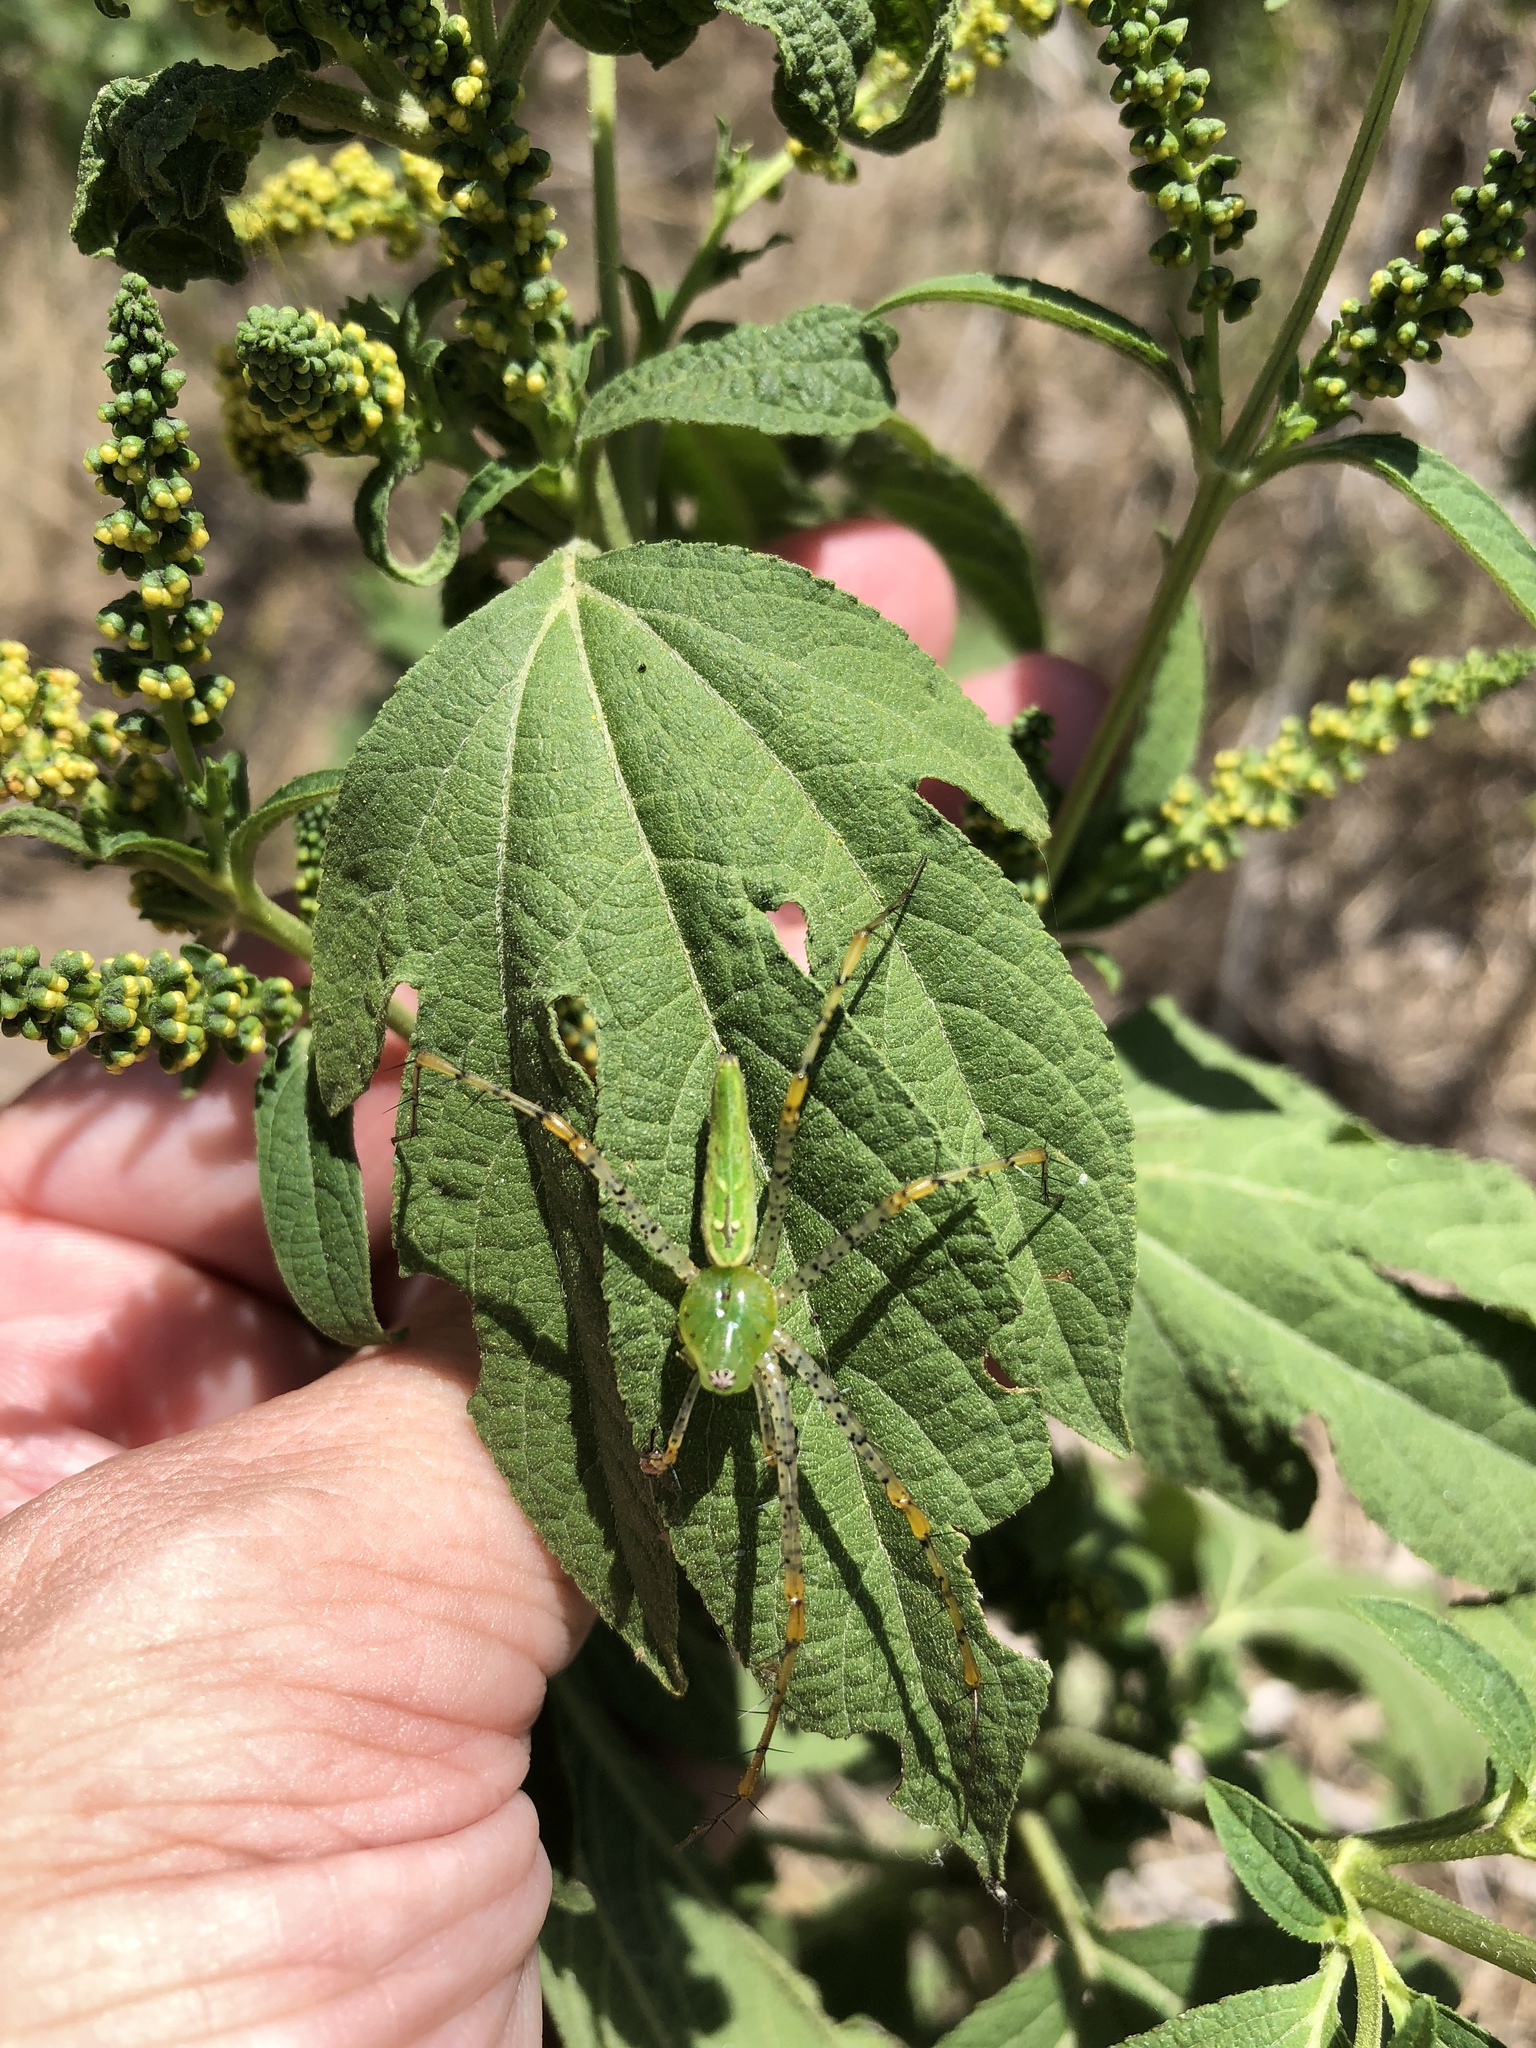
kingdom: Animalia
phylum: Arthropoda
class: Arachnida
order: Araneae
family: Oxyopidae
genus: Peucetia
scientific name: Peucetia viridans
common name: Lynx spiders
